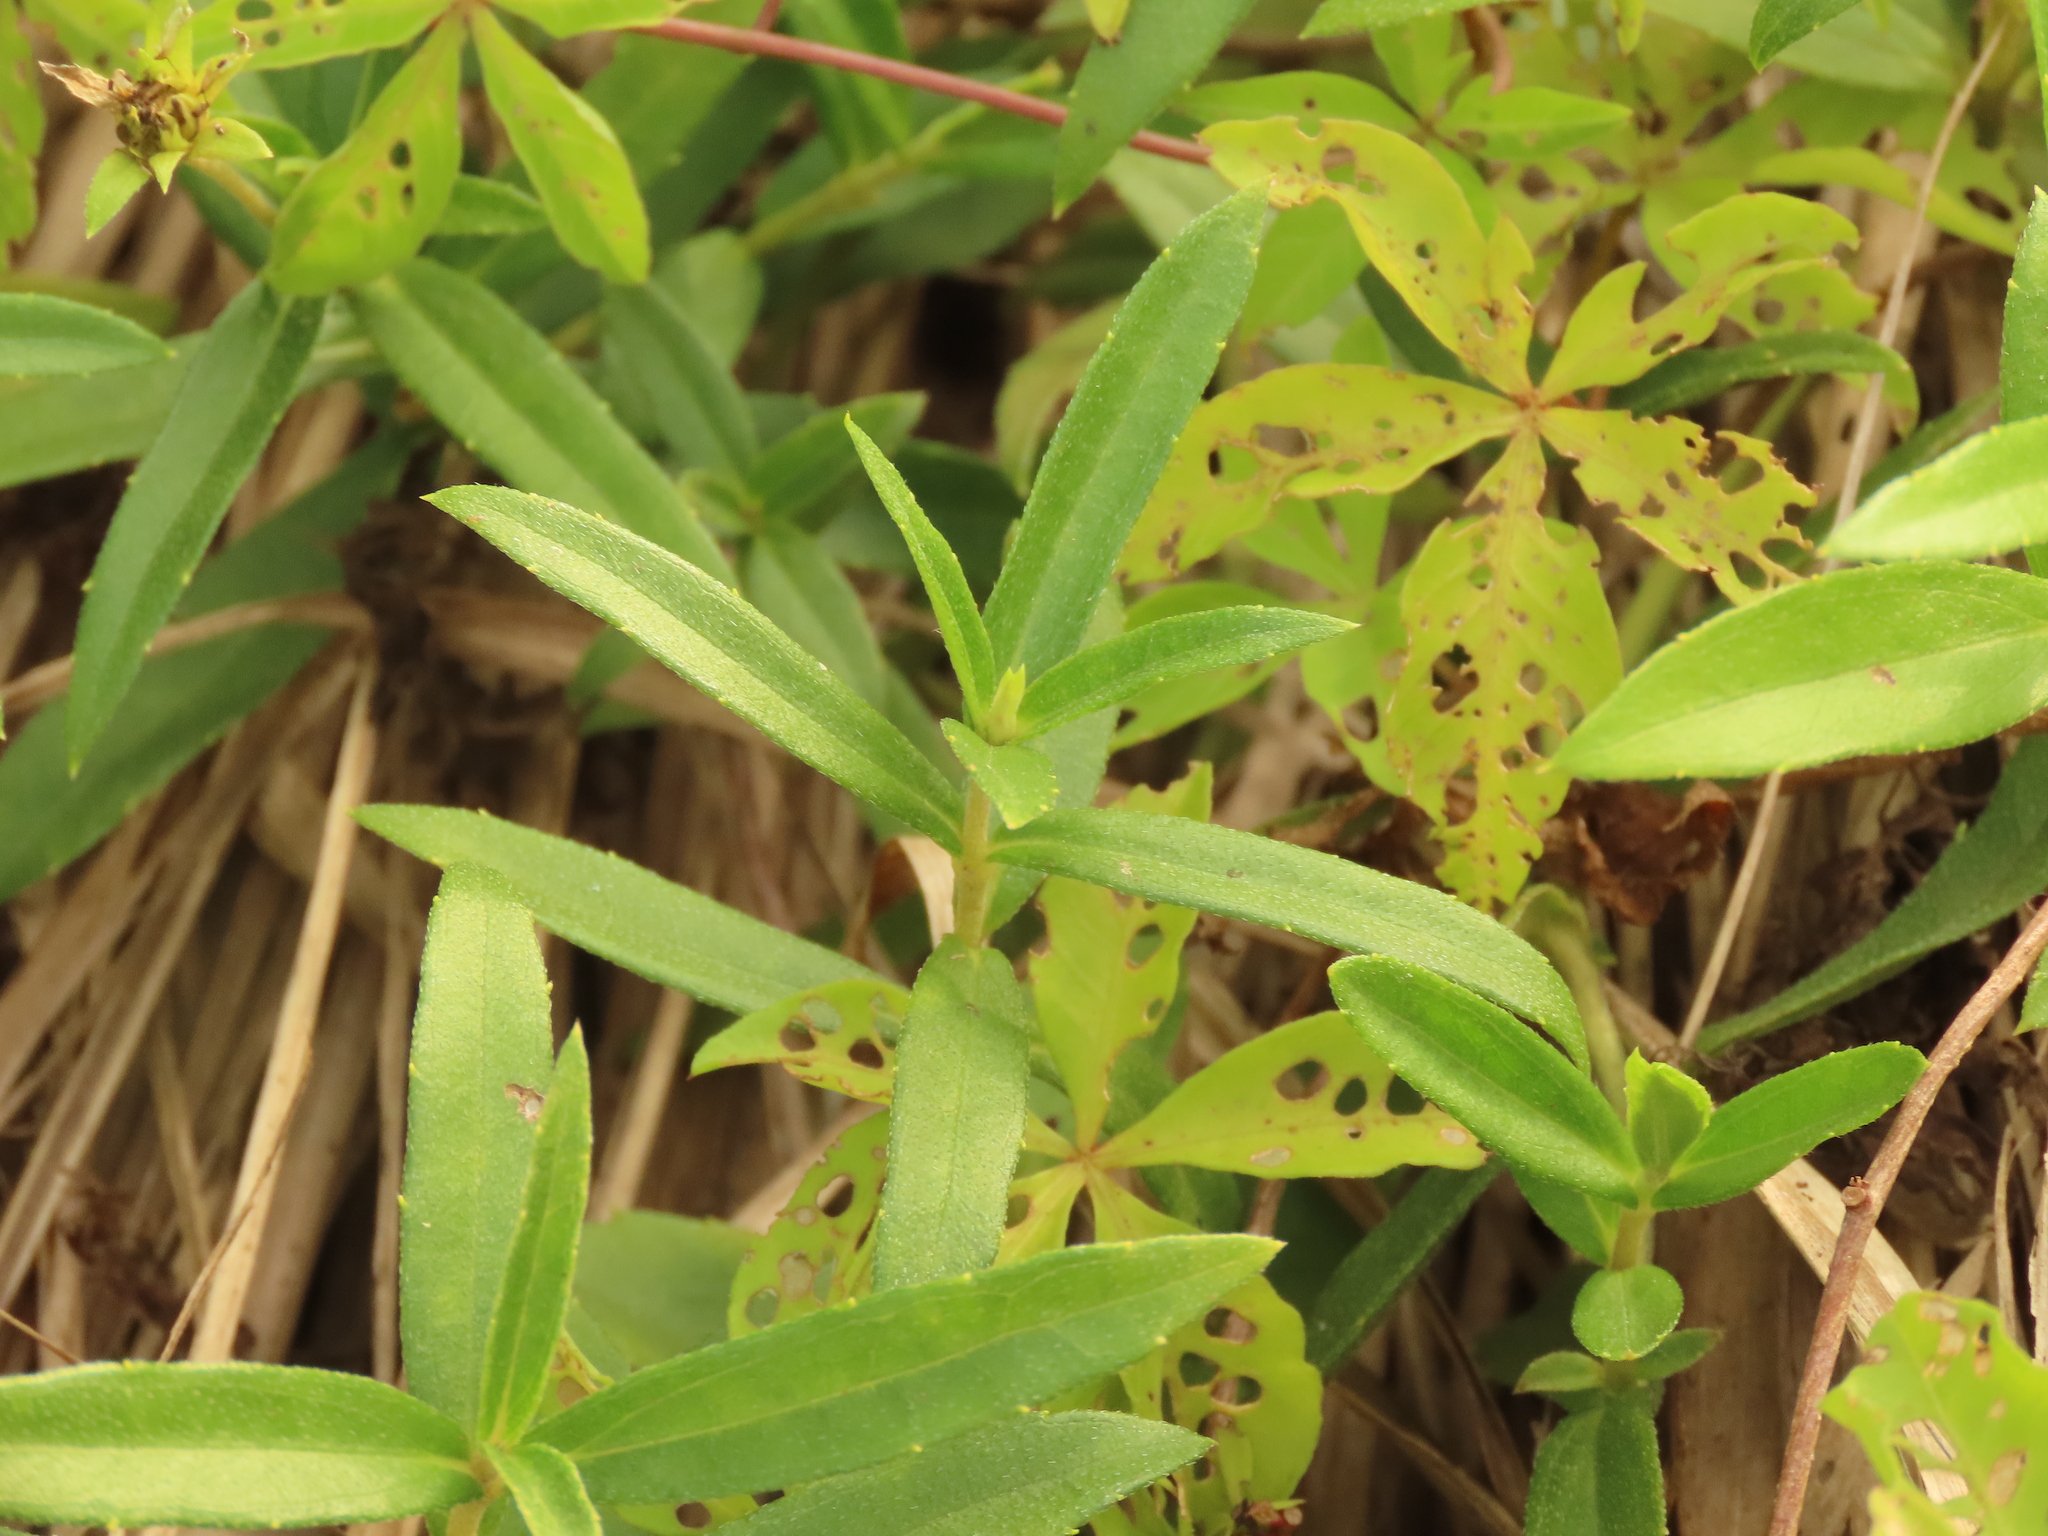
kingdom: Plantae
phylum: Tracheophyta
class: Magnoliopsida
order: Asterales
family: Asteraceae
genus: Sphagneticola
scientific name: Sphagneticola calendulacea
